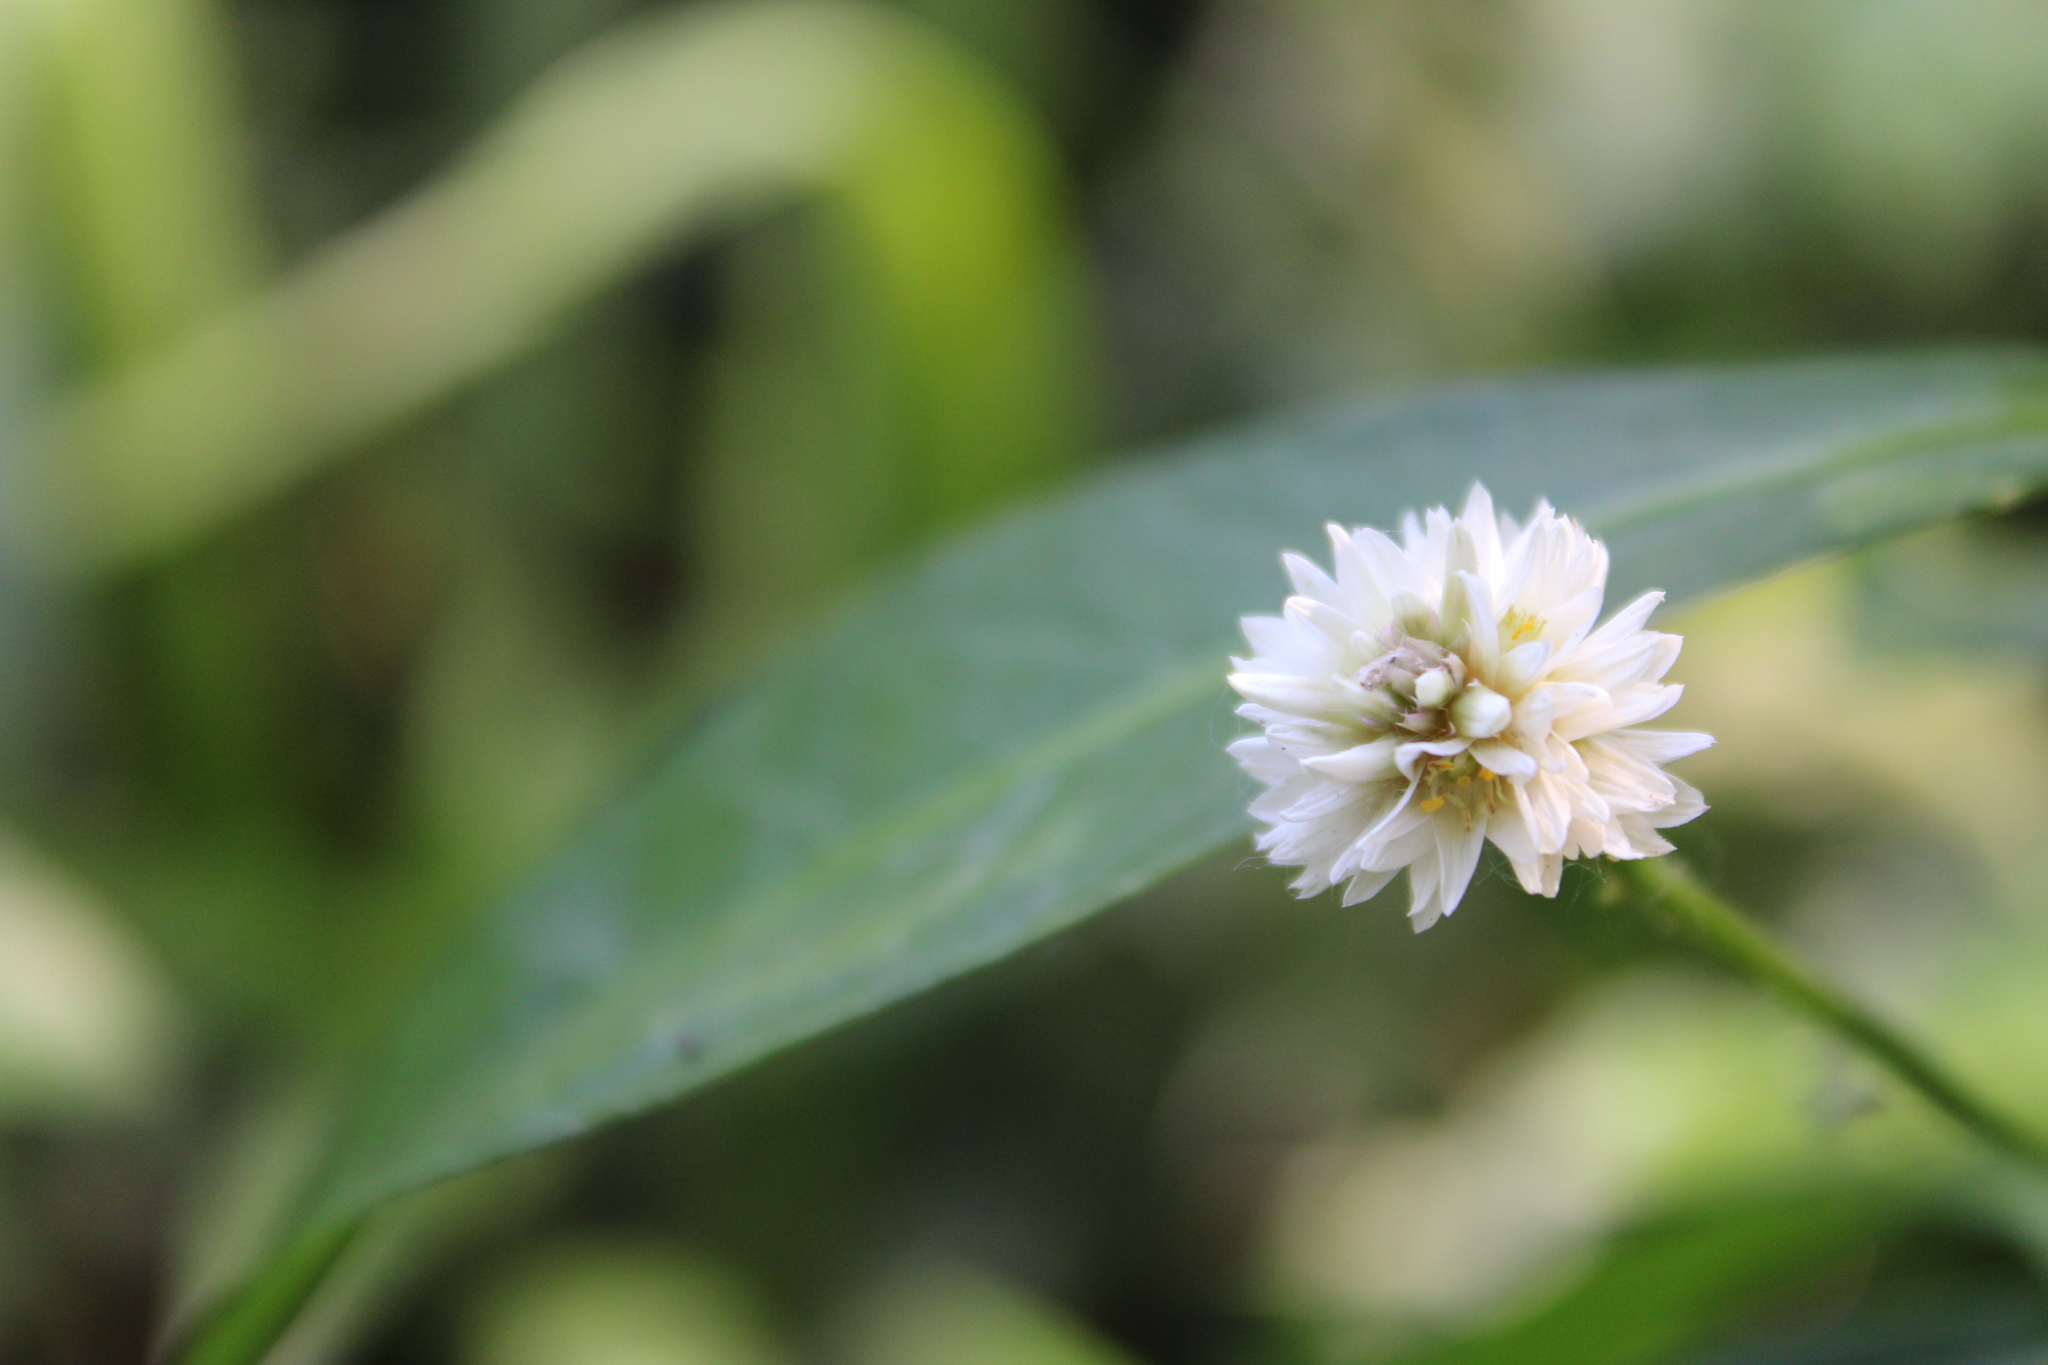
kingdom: Plantae
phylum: Tracheophyta
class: Magnoliopsida
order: Caryophyllales
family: Amaranthaceae
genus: Alternanthera
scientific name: Alternanthera philoxeroides
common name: Alligatorweed
